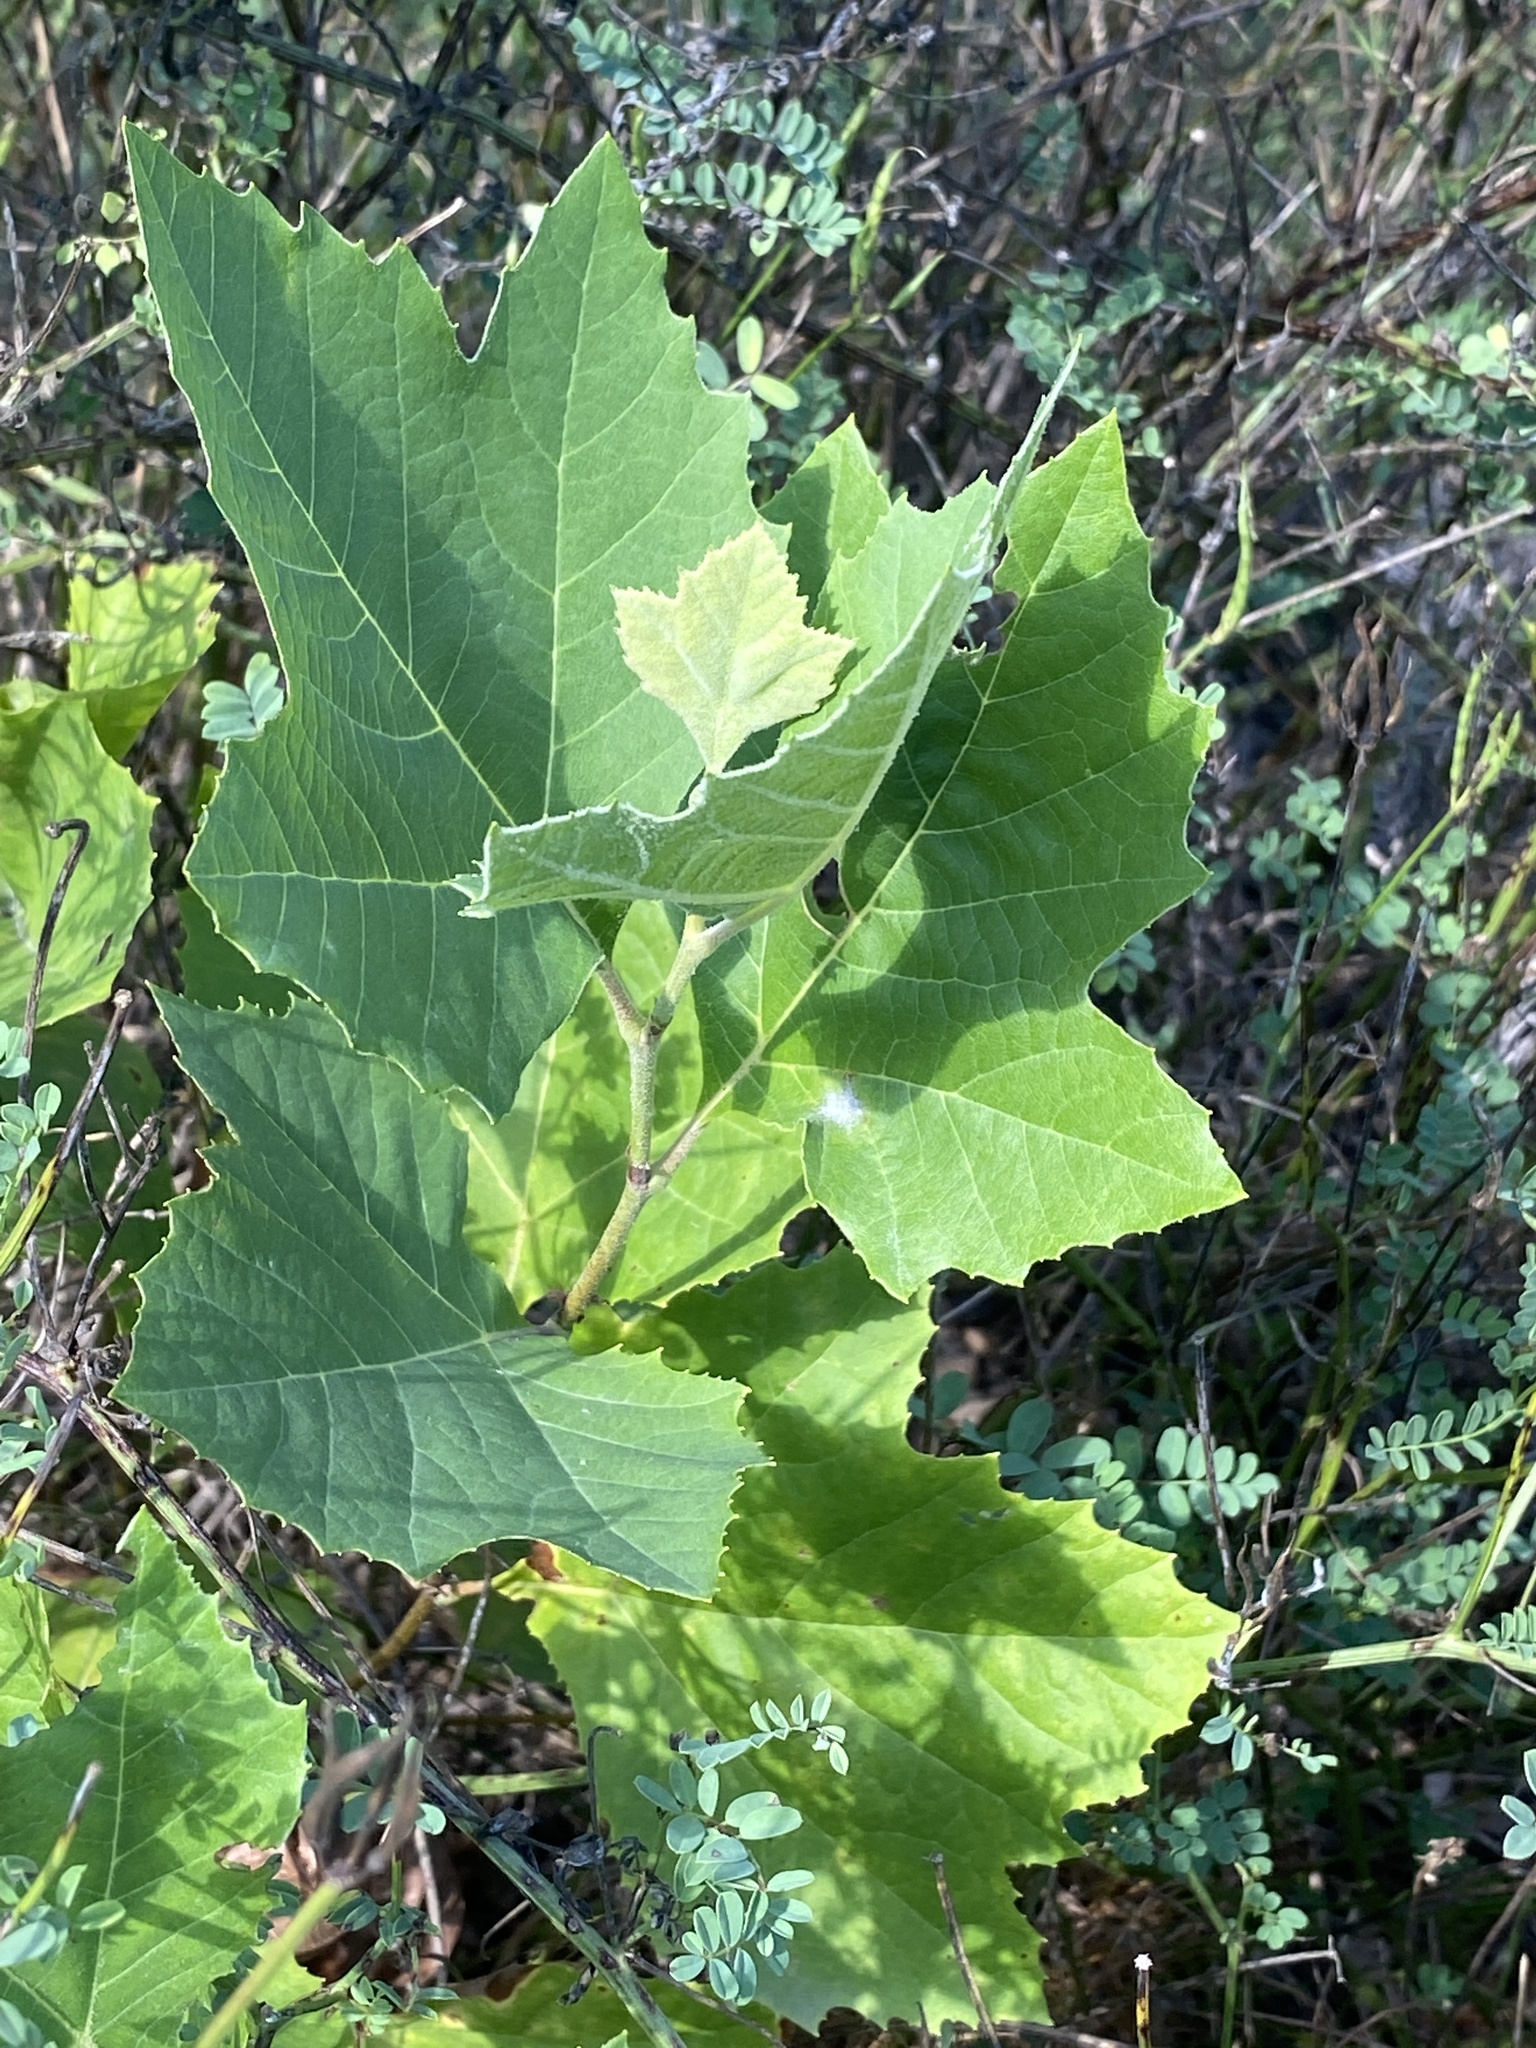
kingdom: Plantae
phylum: Tracheophyta
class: Magnoliopsida
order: Proteales
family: Platanaceae
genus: Platanus
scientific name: Platanus occidentalis
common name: American sycamore
